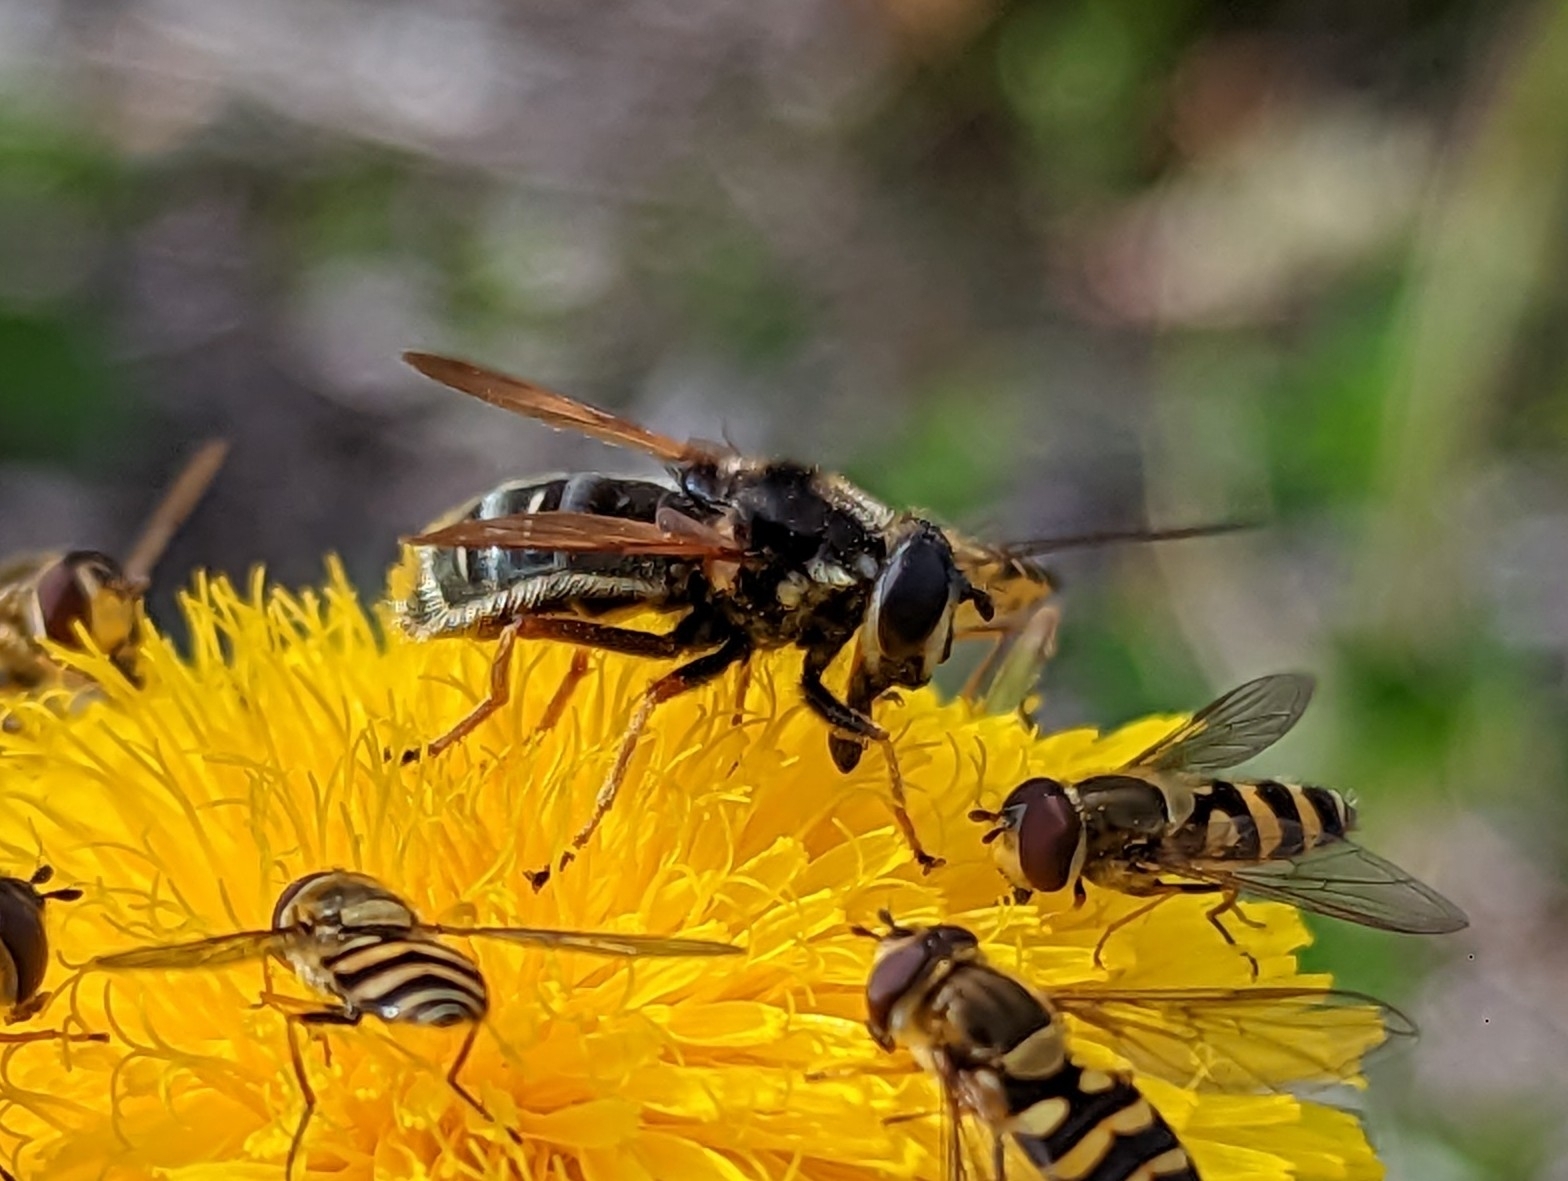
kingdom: Animalia
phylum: Arthropoda
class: Insecta
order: Diptera
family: Syrphidae
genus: Sericomyia
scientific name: Sericomyia militaris
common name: Narrow-banded pond fly
